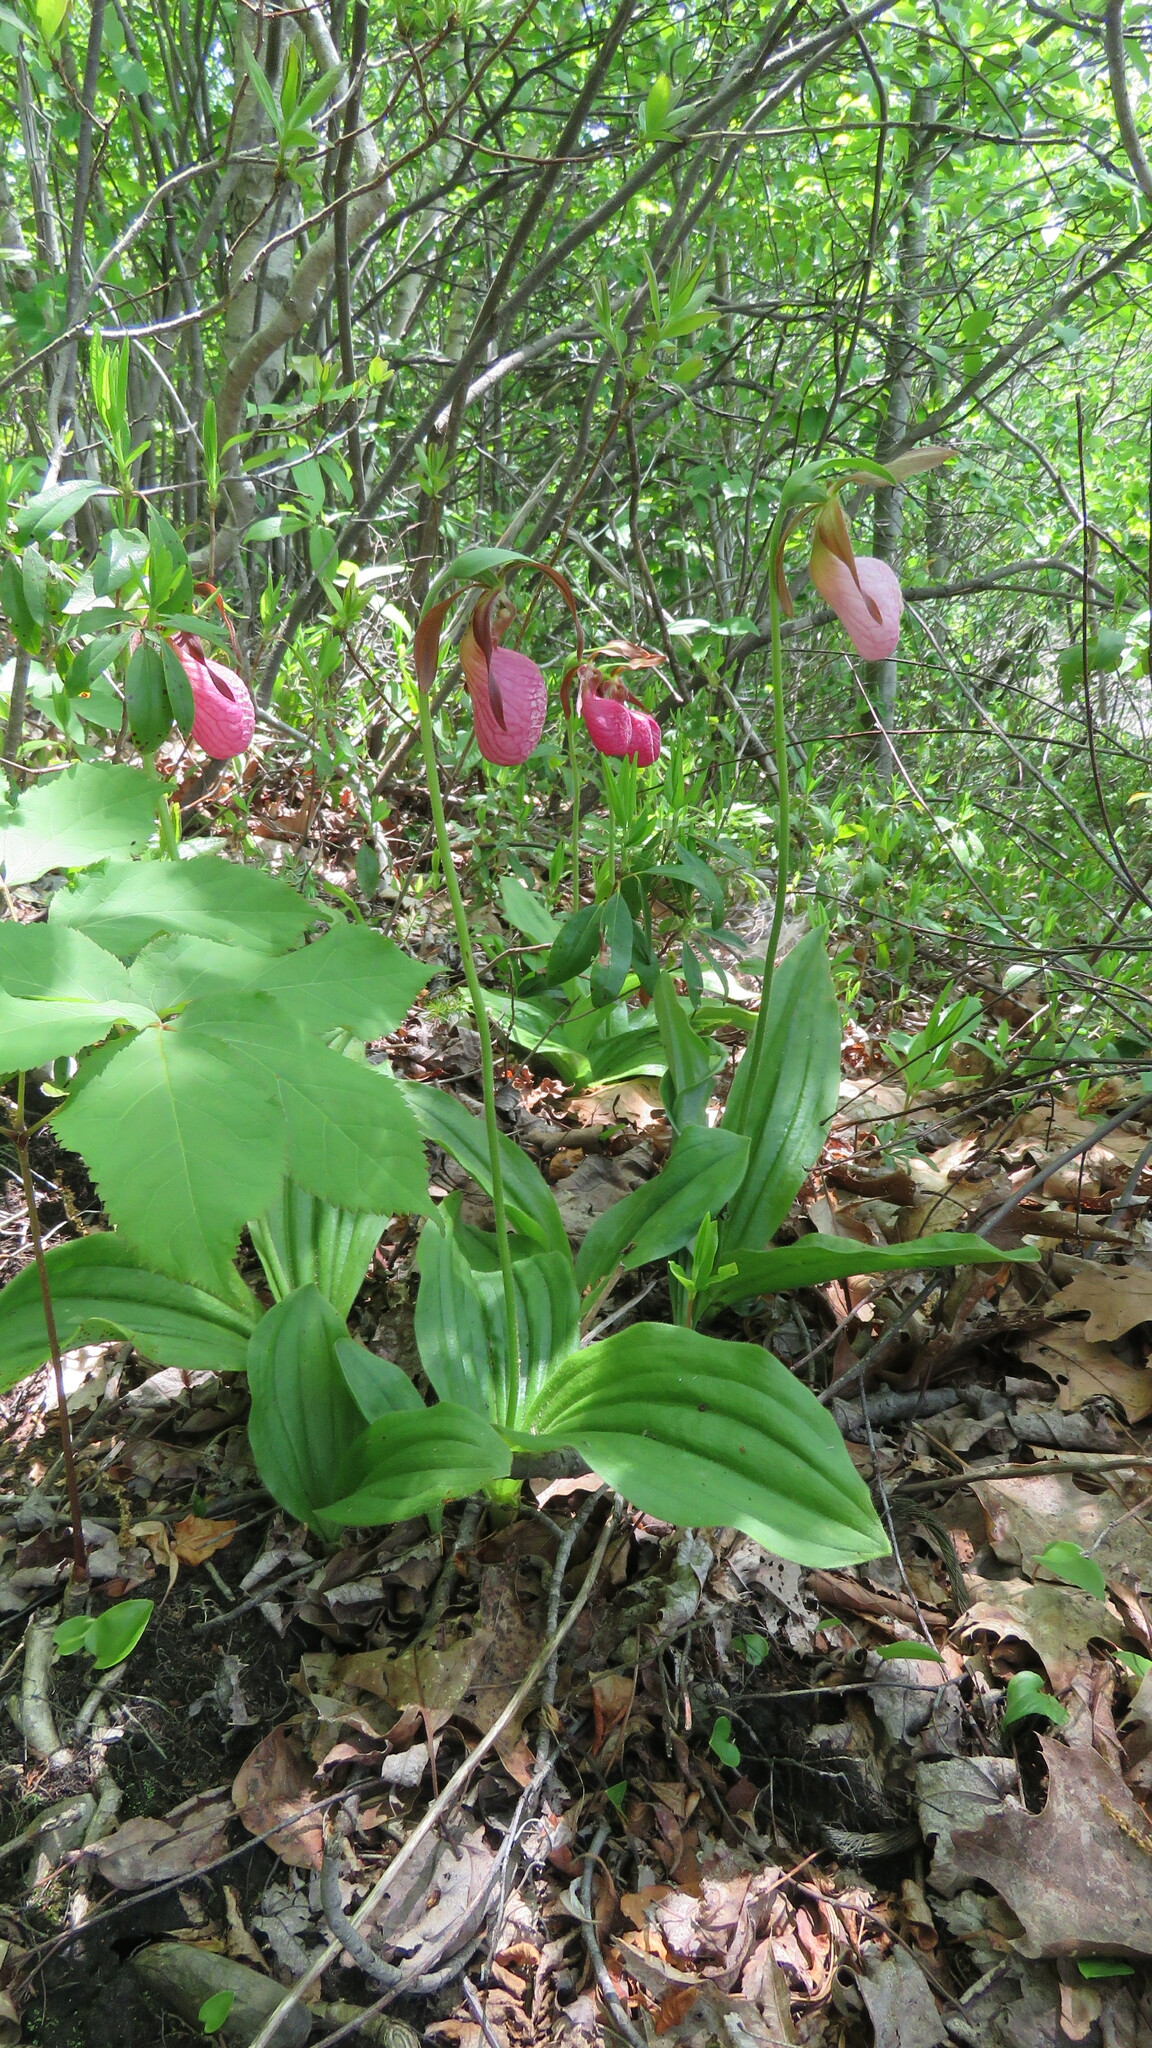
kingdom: Plantae
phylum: Tracheophyta
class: Liliopsida
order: Asparagales
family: Orchidaceae
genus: Cypripedium
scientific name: Cypripedium acaule
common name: Pink lady's-slipper
